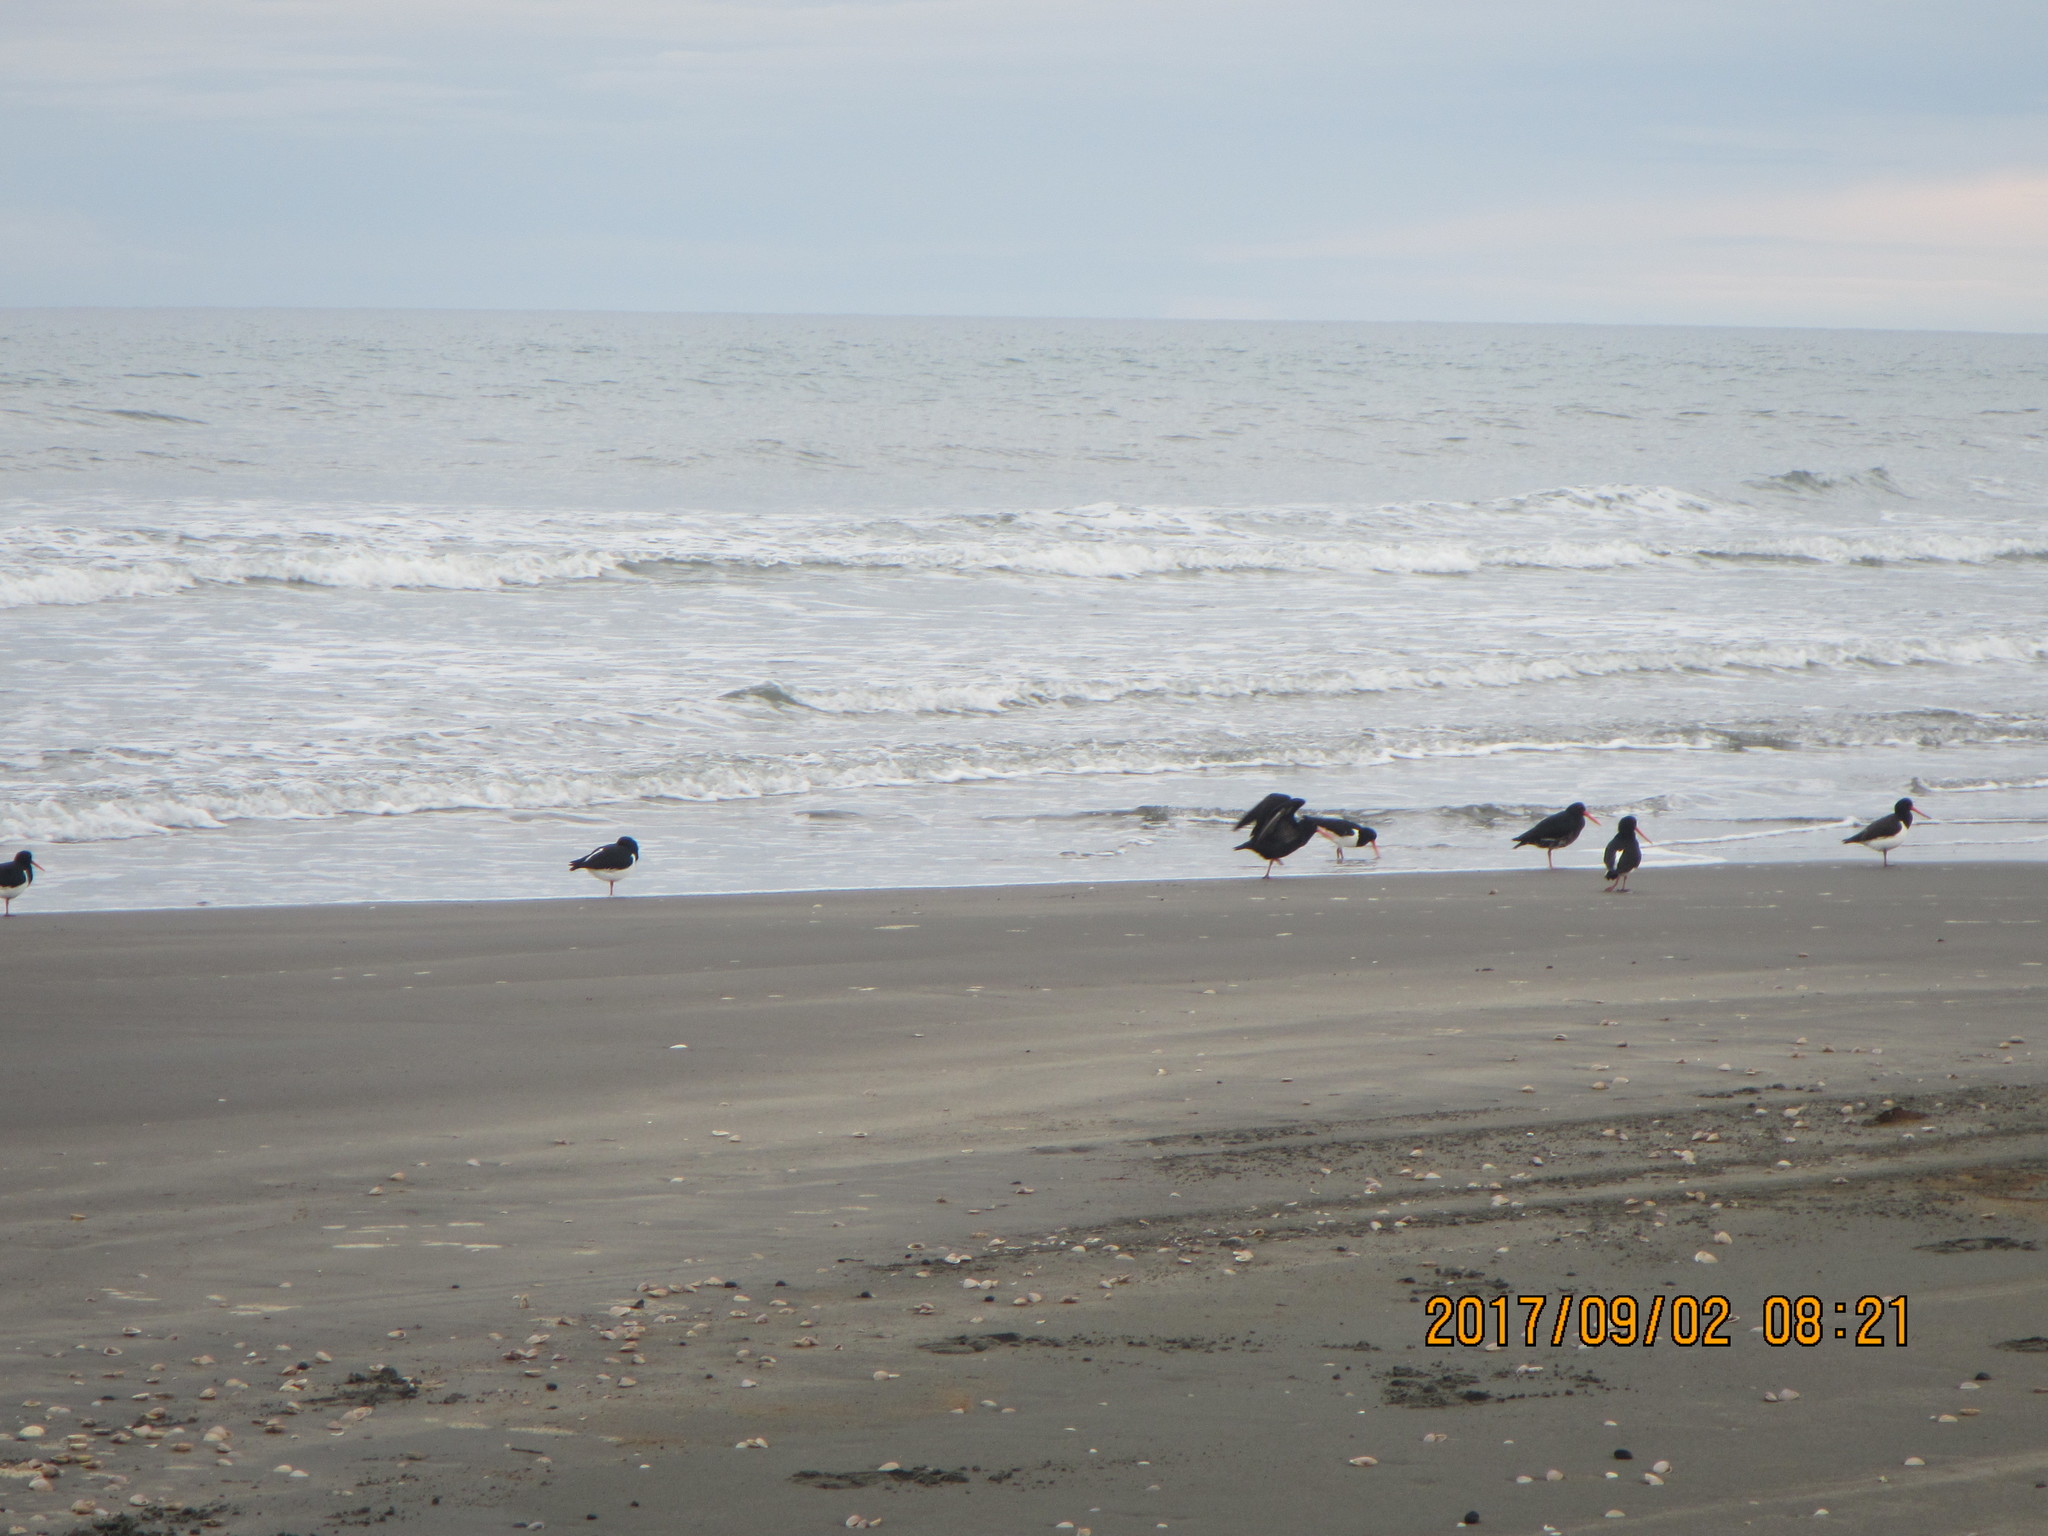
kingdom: Animalia
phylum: Chordata
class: Aves
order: Charadriiformes
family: Haematopodidae
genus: Haematopus
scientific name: Haematopus finschi
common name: South island oystercatcher
